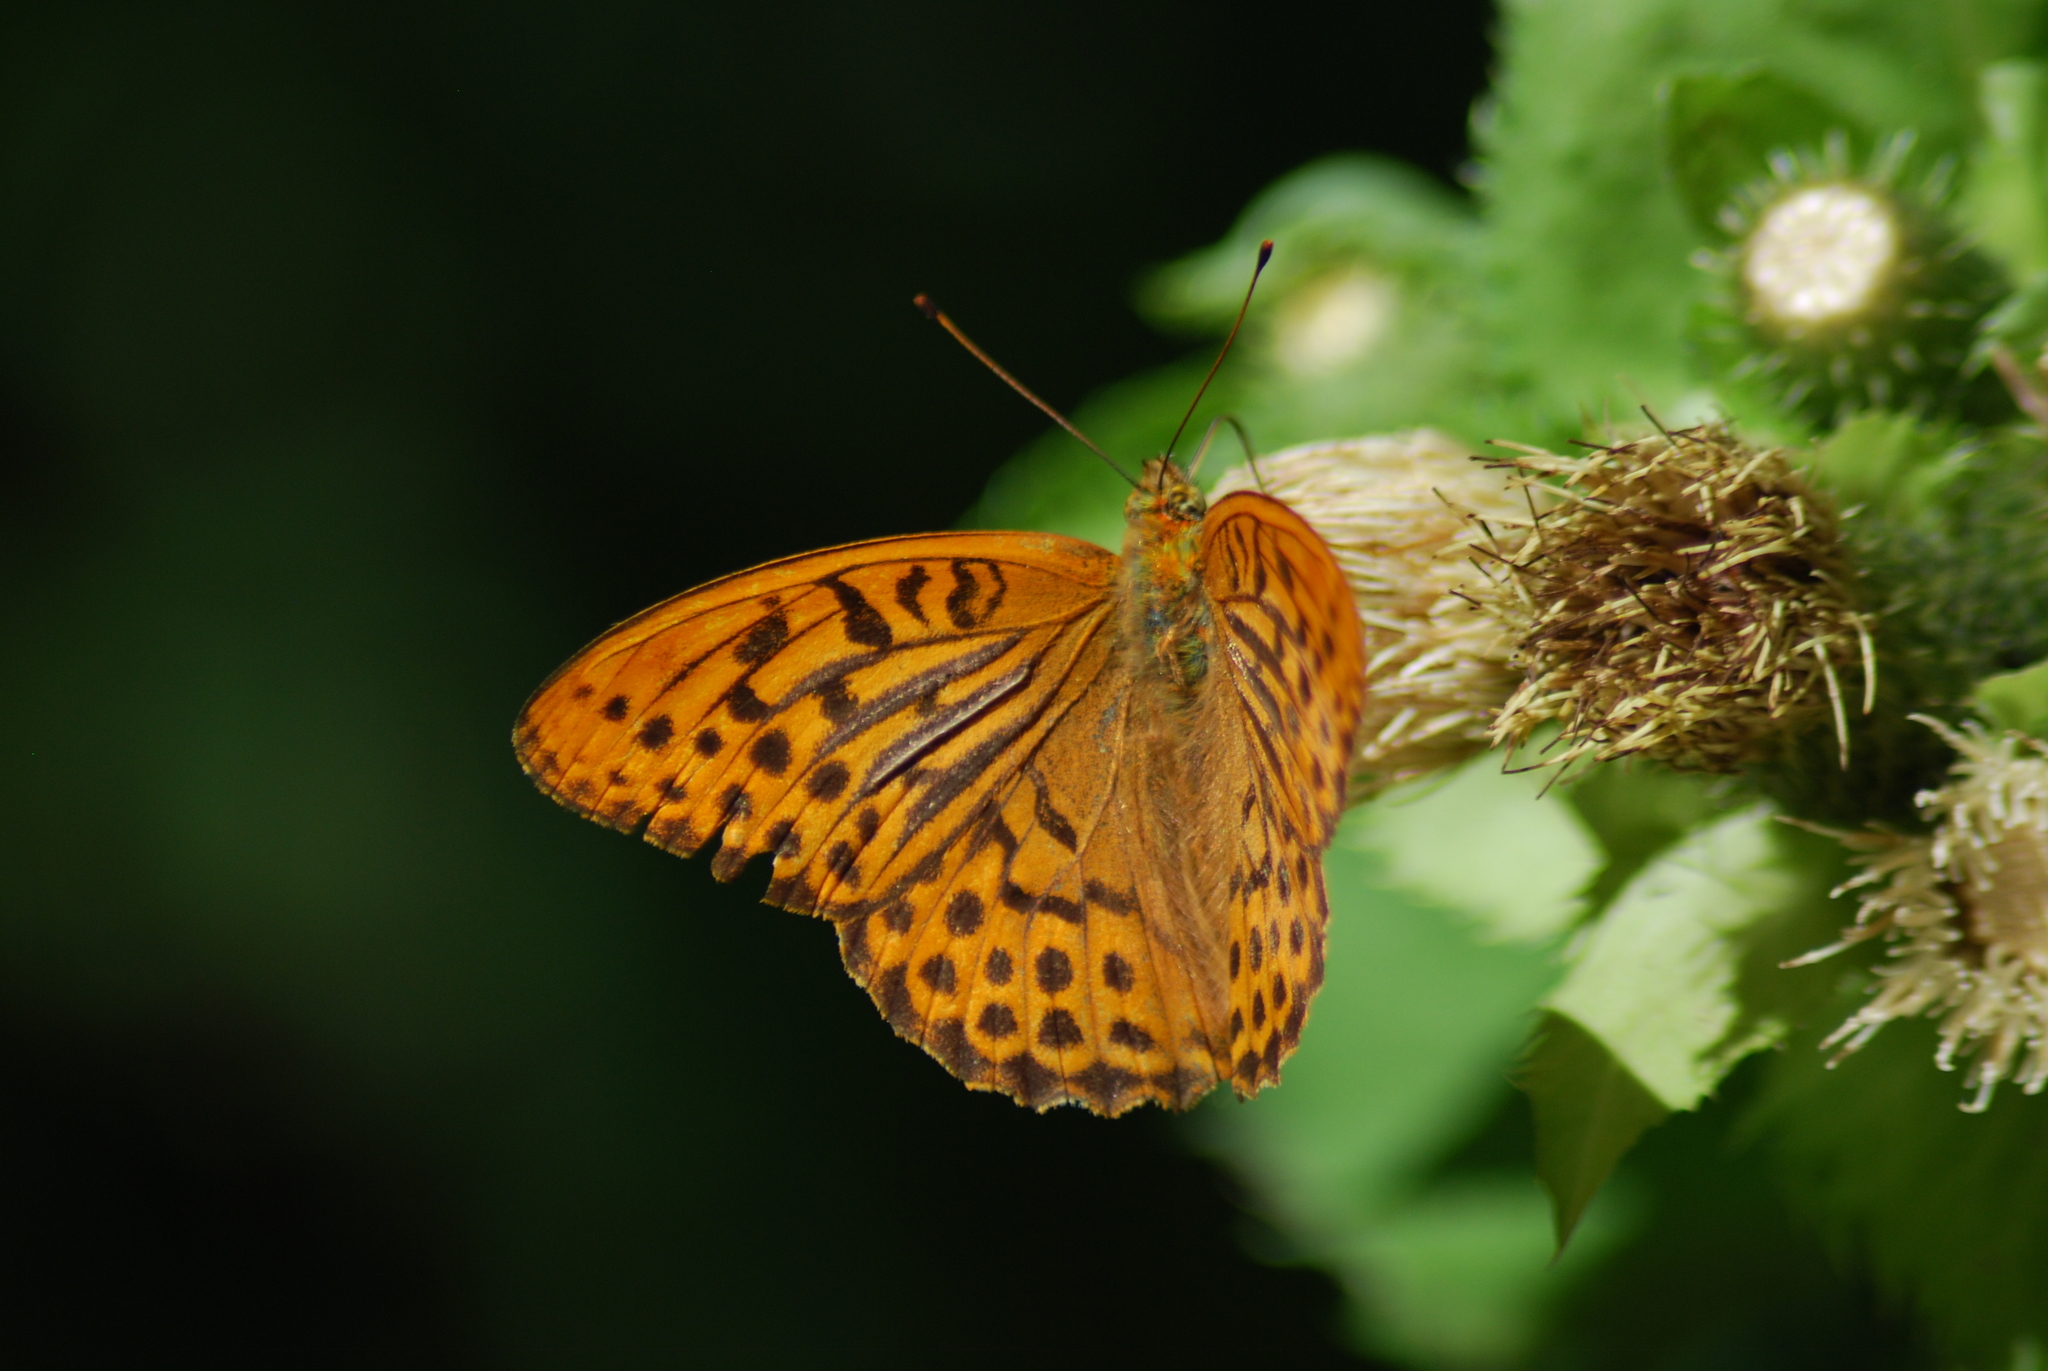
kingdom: Animalia
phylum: Arthropoda
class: Insecta
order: Lepidoptera
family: Nymphalidae
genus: Argynnis
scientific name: Argynnis paphia
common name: Silver-washed fritillary
